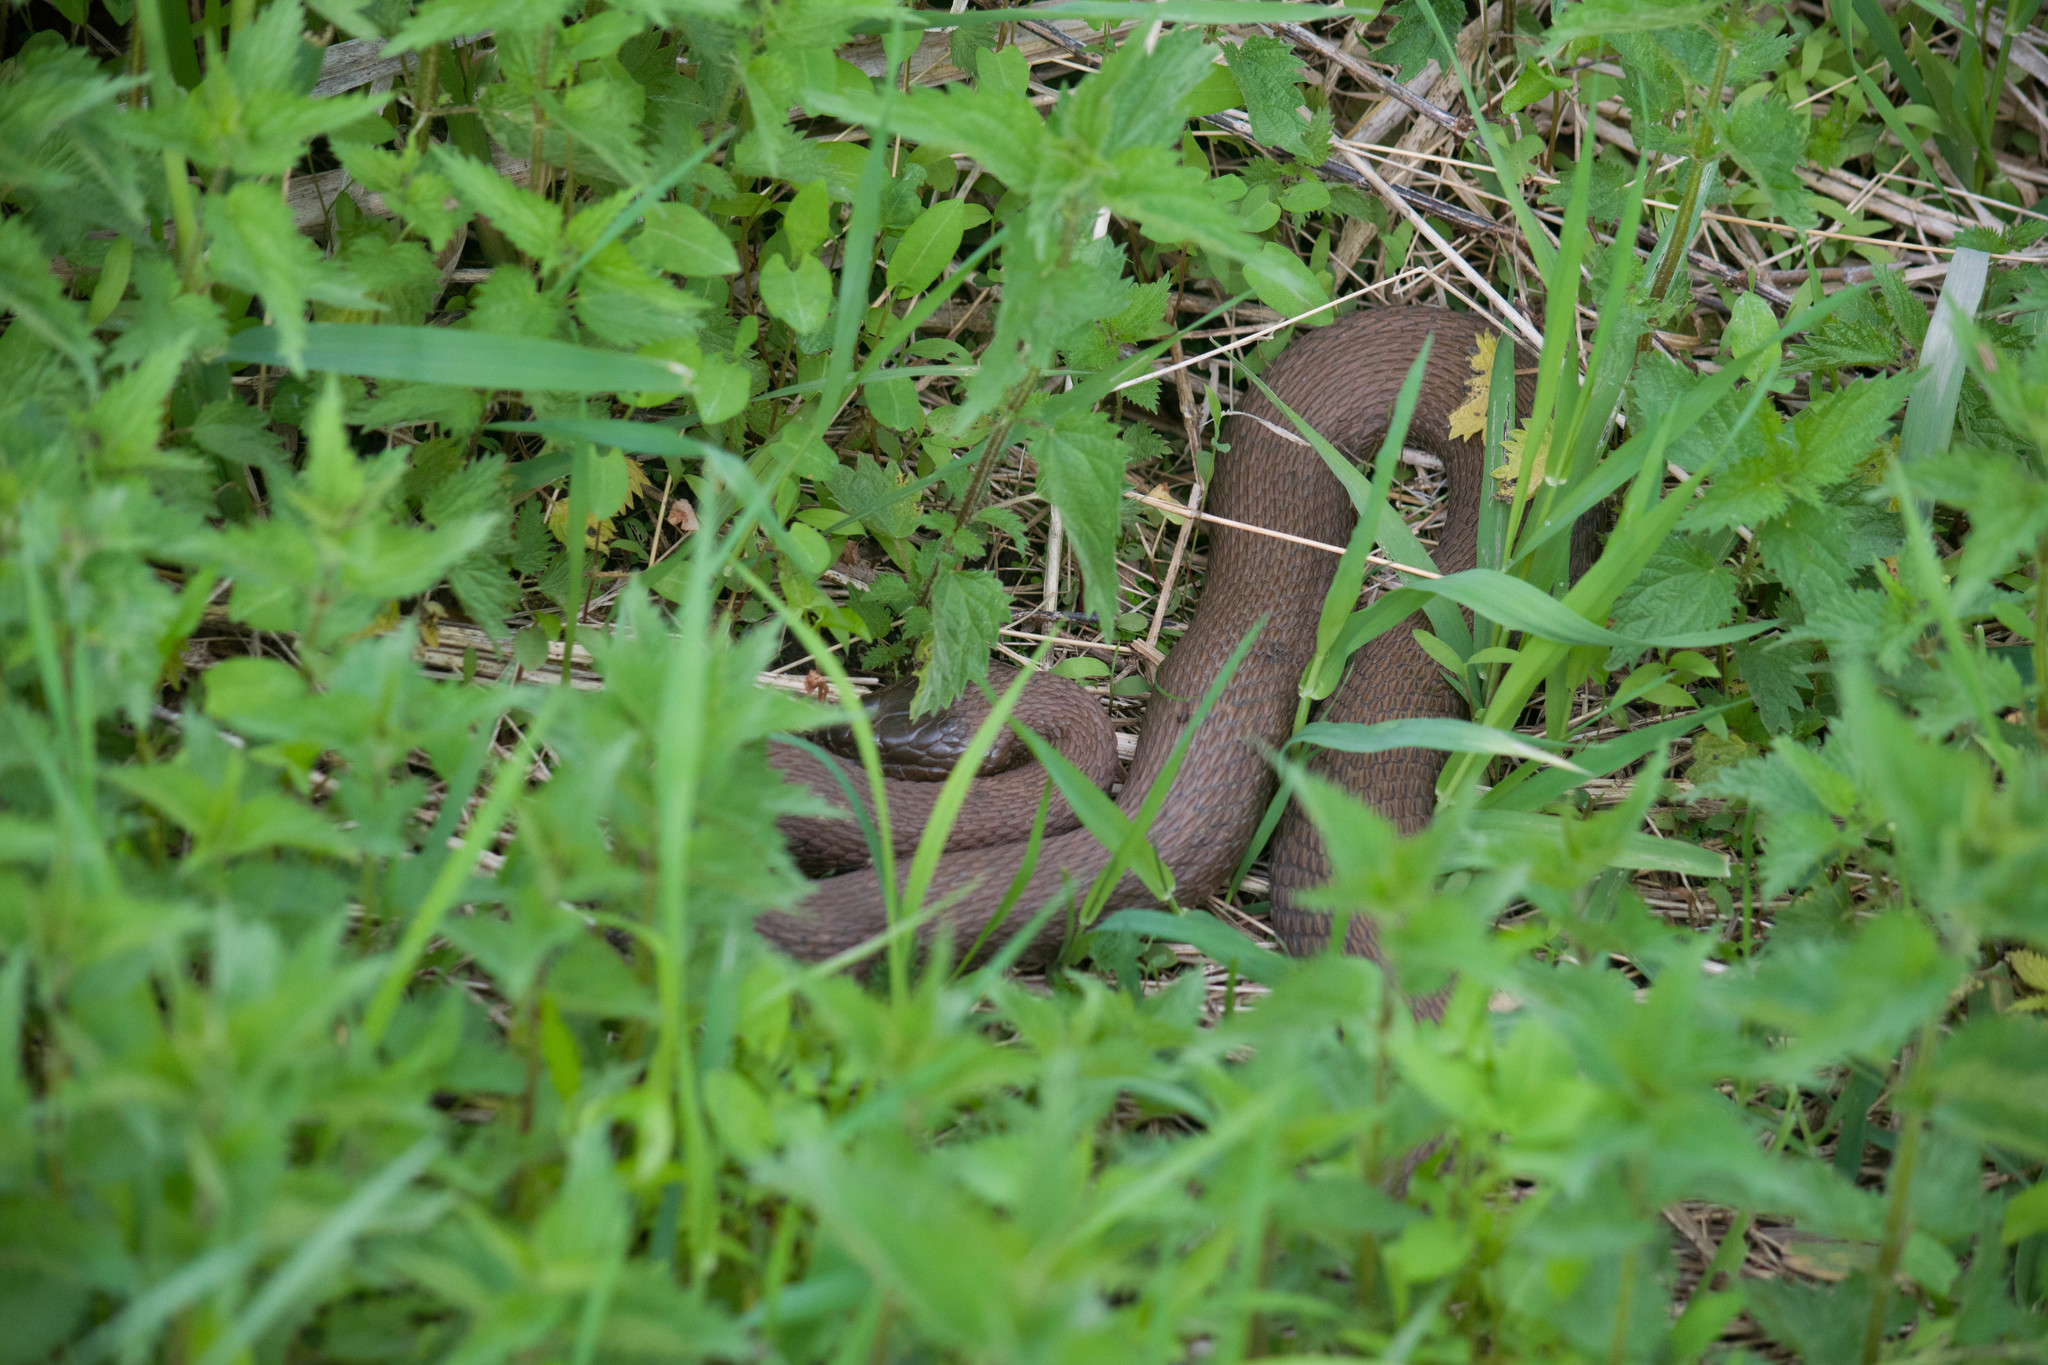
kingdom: Animalia
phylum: Chordata
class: Squamata
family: Colubridae
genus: Nerodia
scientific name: Nerodia sipedon
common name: Northern water snake
